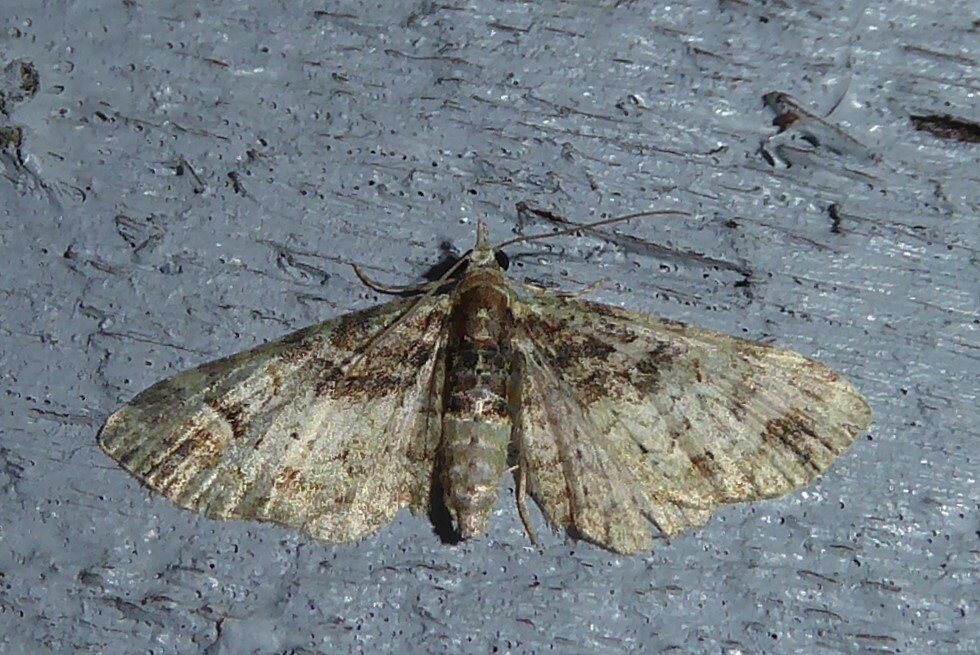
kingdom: Animalia
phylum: Arthropoda
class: Insecta
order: Lepidoptera
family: Geometridae
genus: Idaea
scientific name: Idaea mutanda
